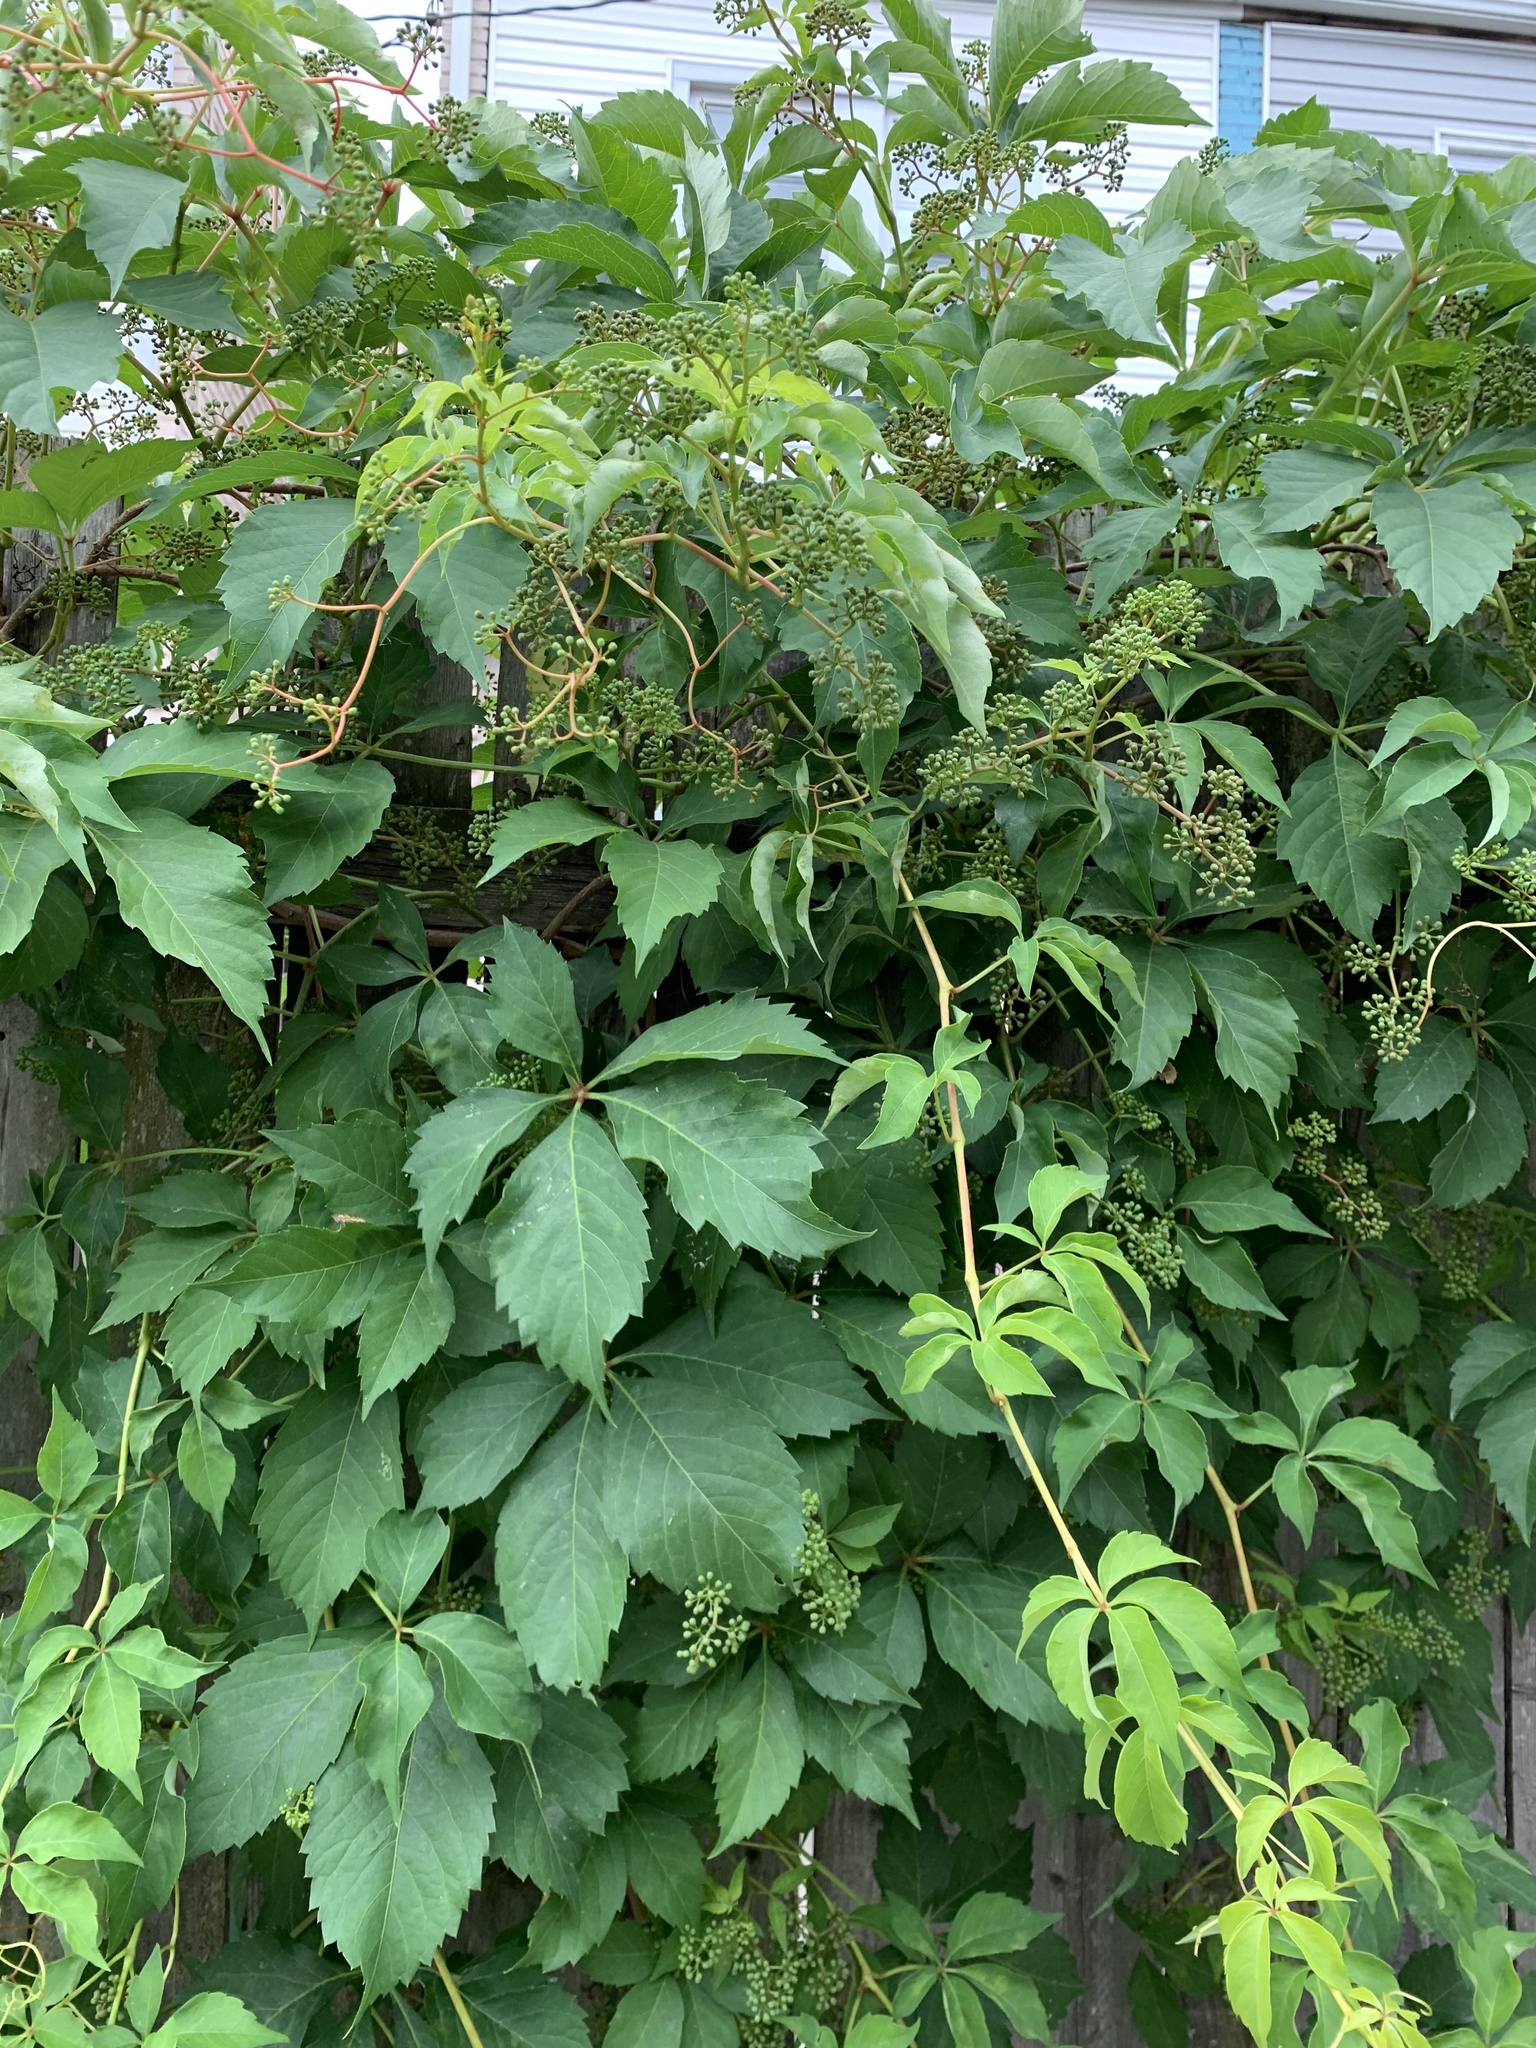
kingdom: Plantae
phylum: Tracheophyta
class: Magnoliopsida
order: Vitales
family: Vitaceae
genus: Parthenocissus
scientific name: Parthenocissus quinquefolia
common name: Virginia-creeper
